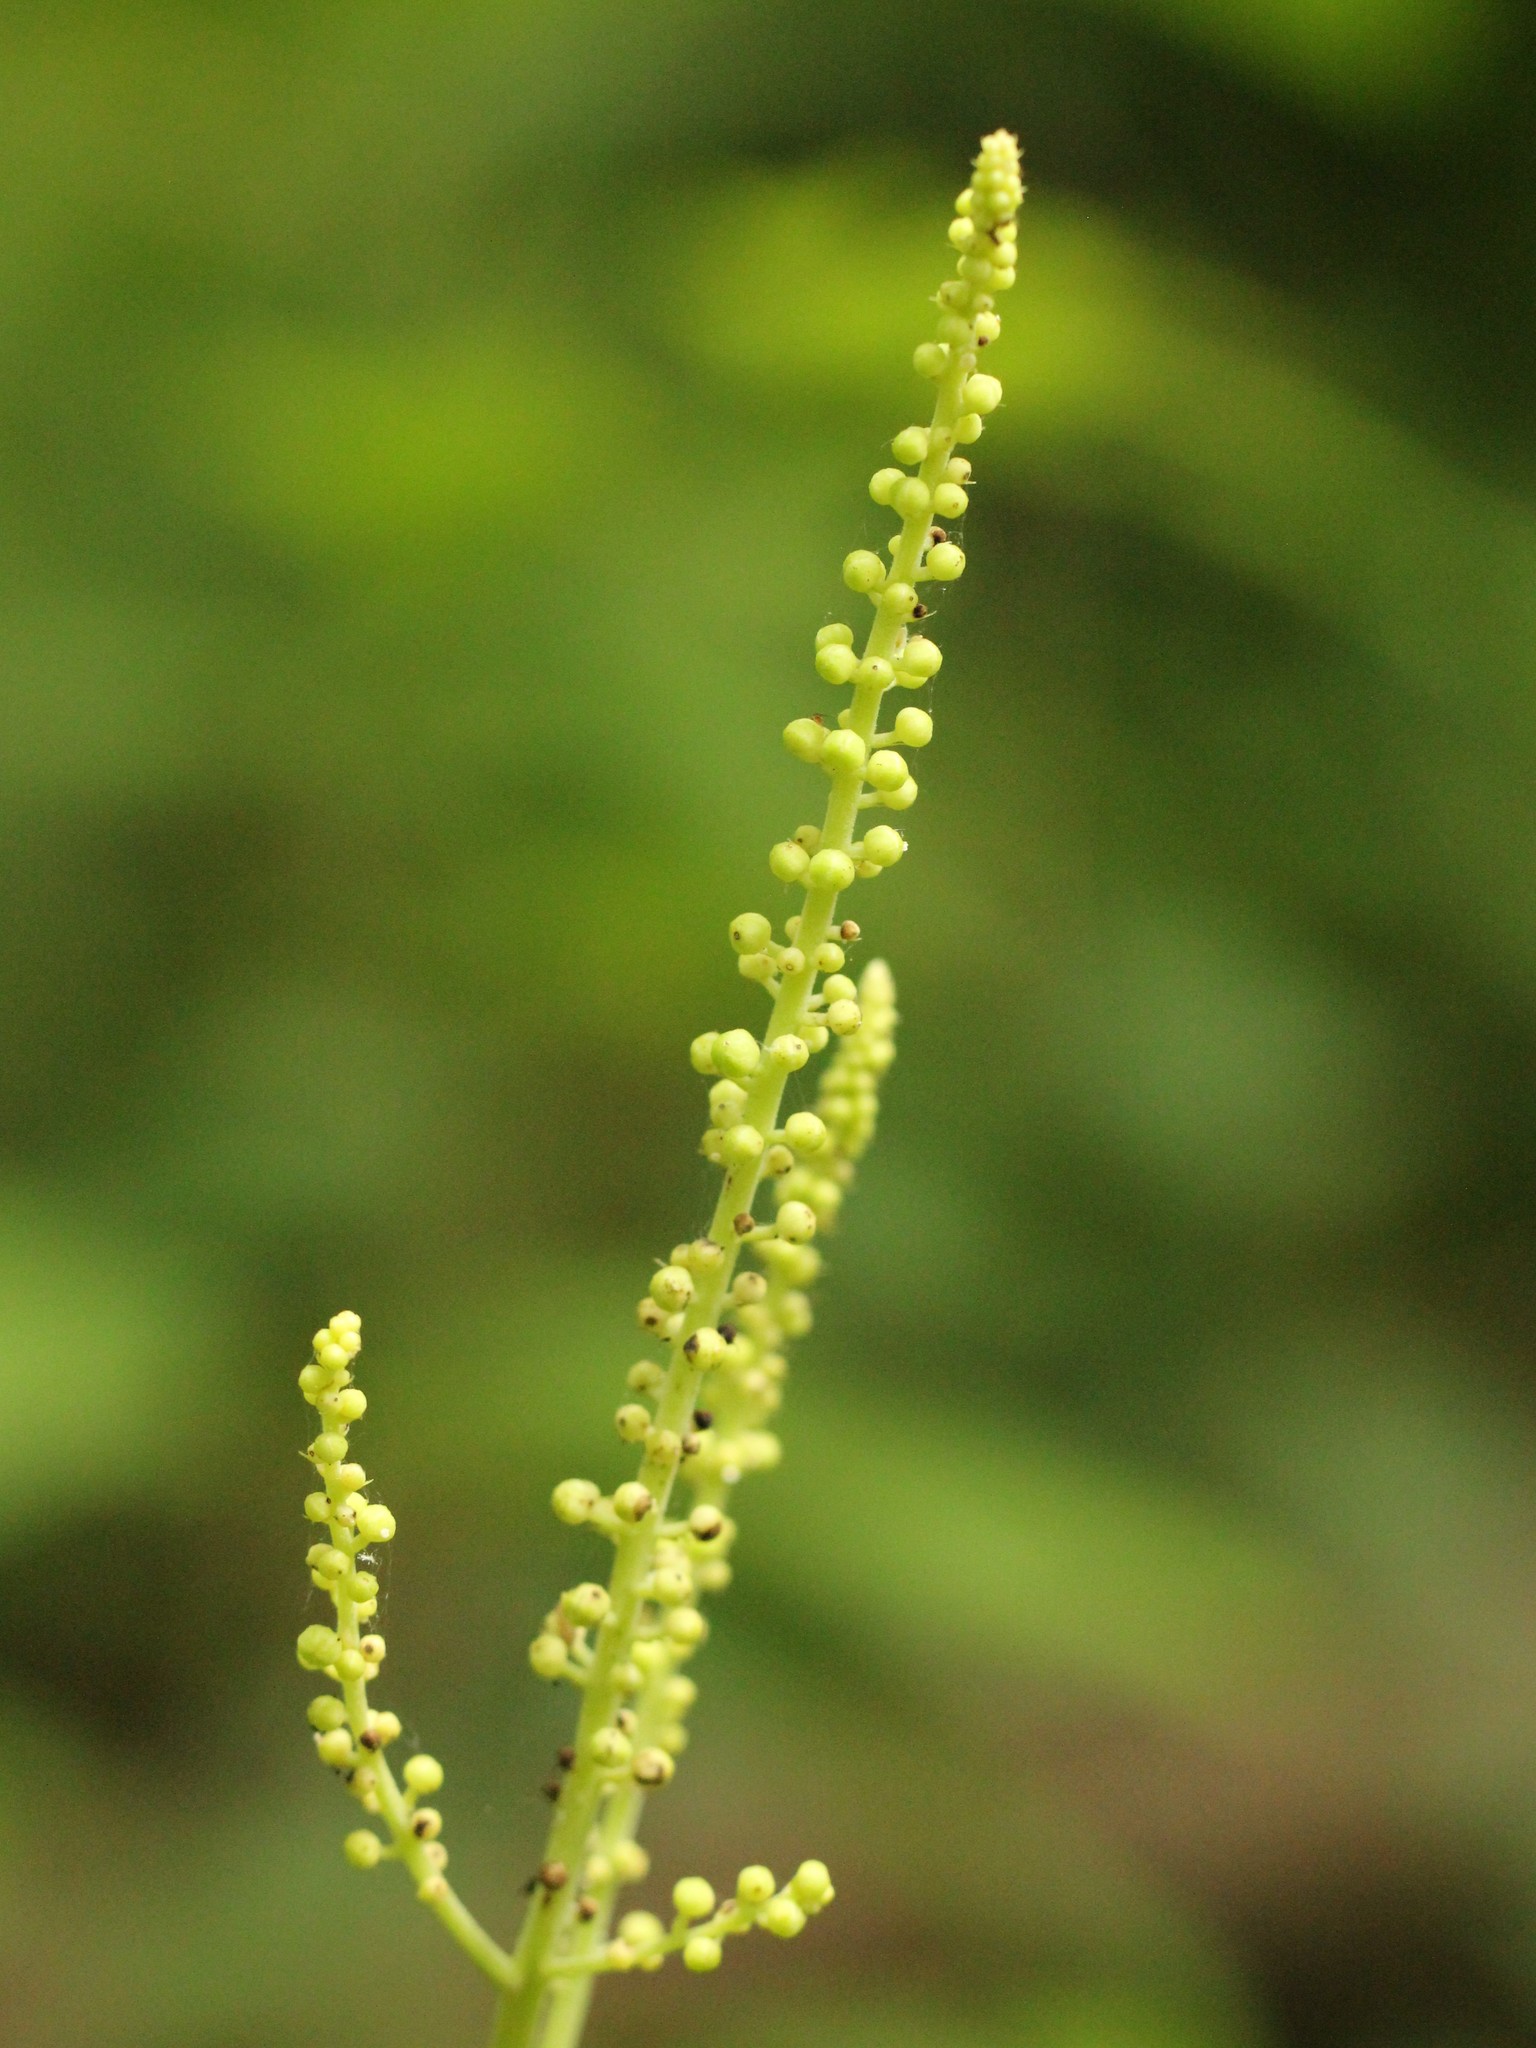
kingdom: Plantae
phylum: Tracheophyta
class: Magnoliopsida
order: Ranunculales
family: Ranunculaceae
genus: Actaea
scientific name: Actaea racemosa
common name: Black cohosh
